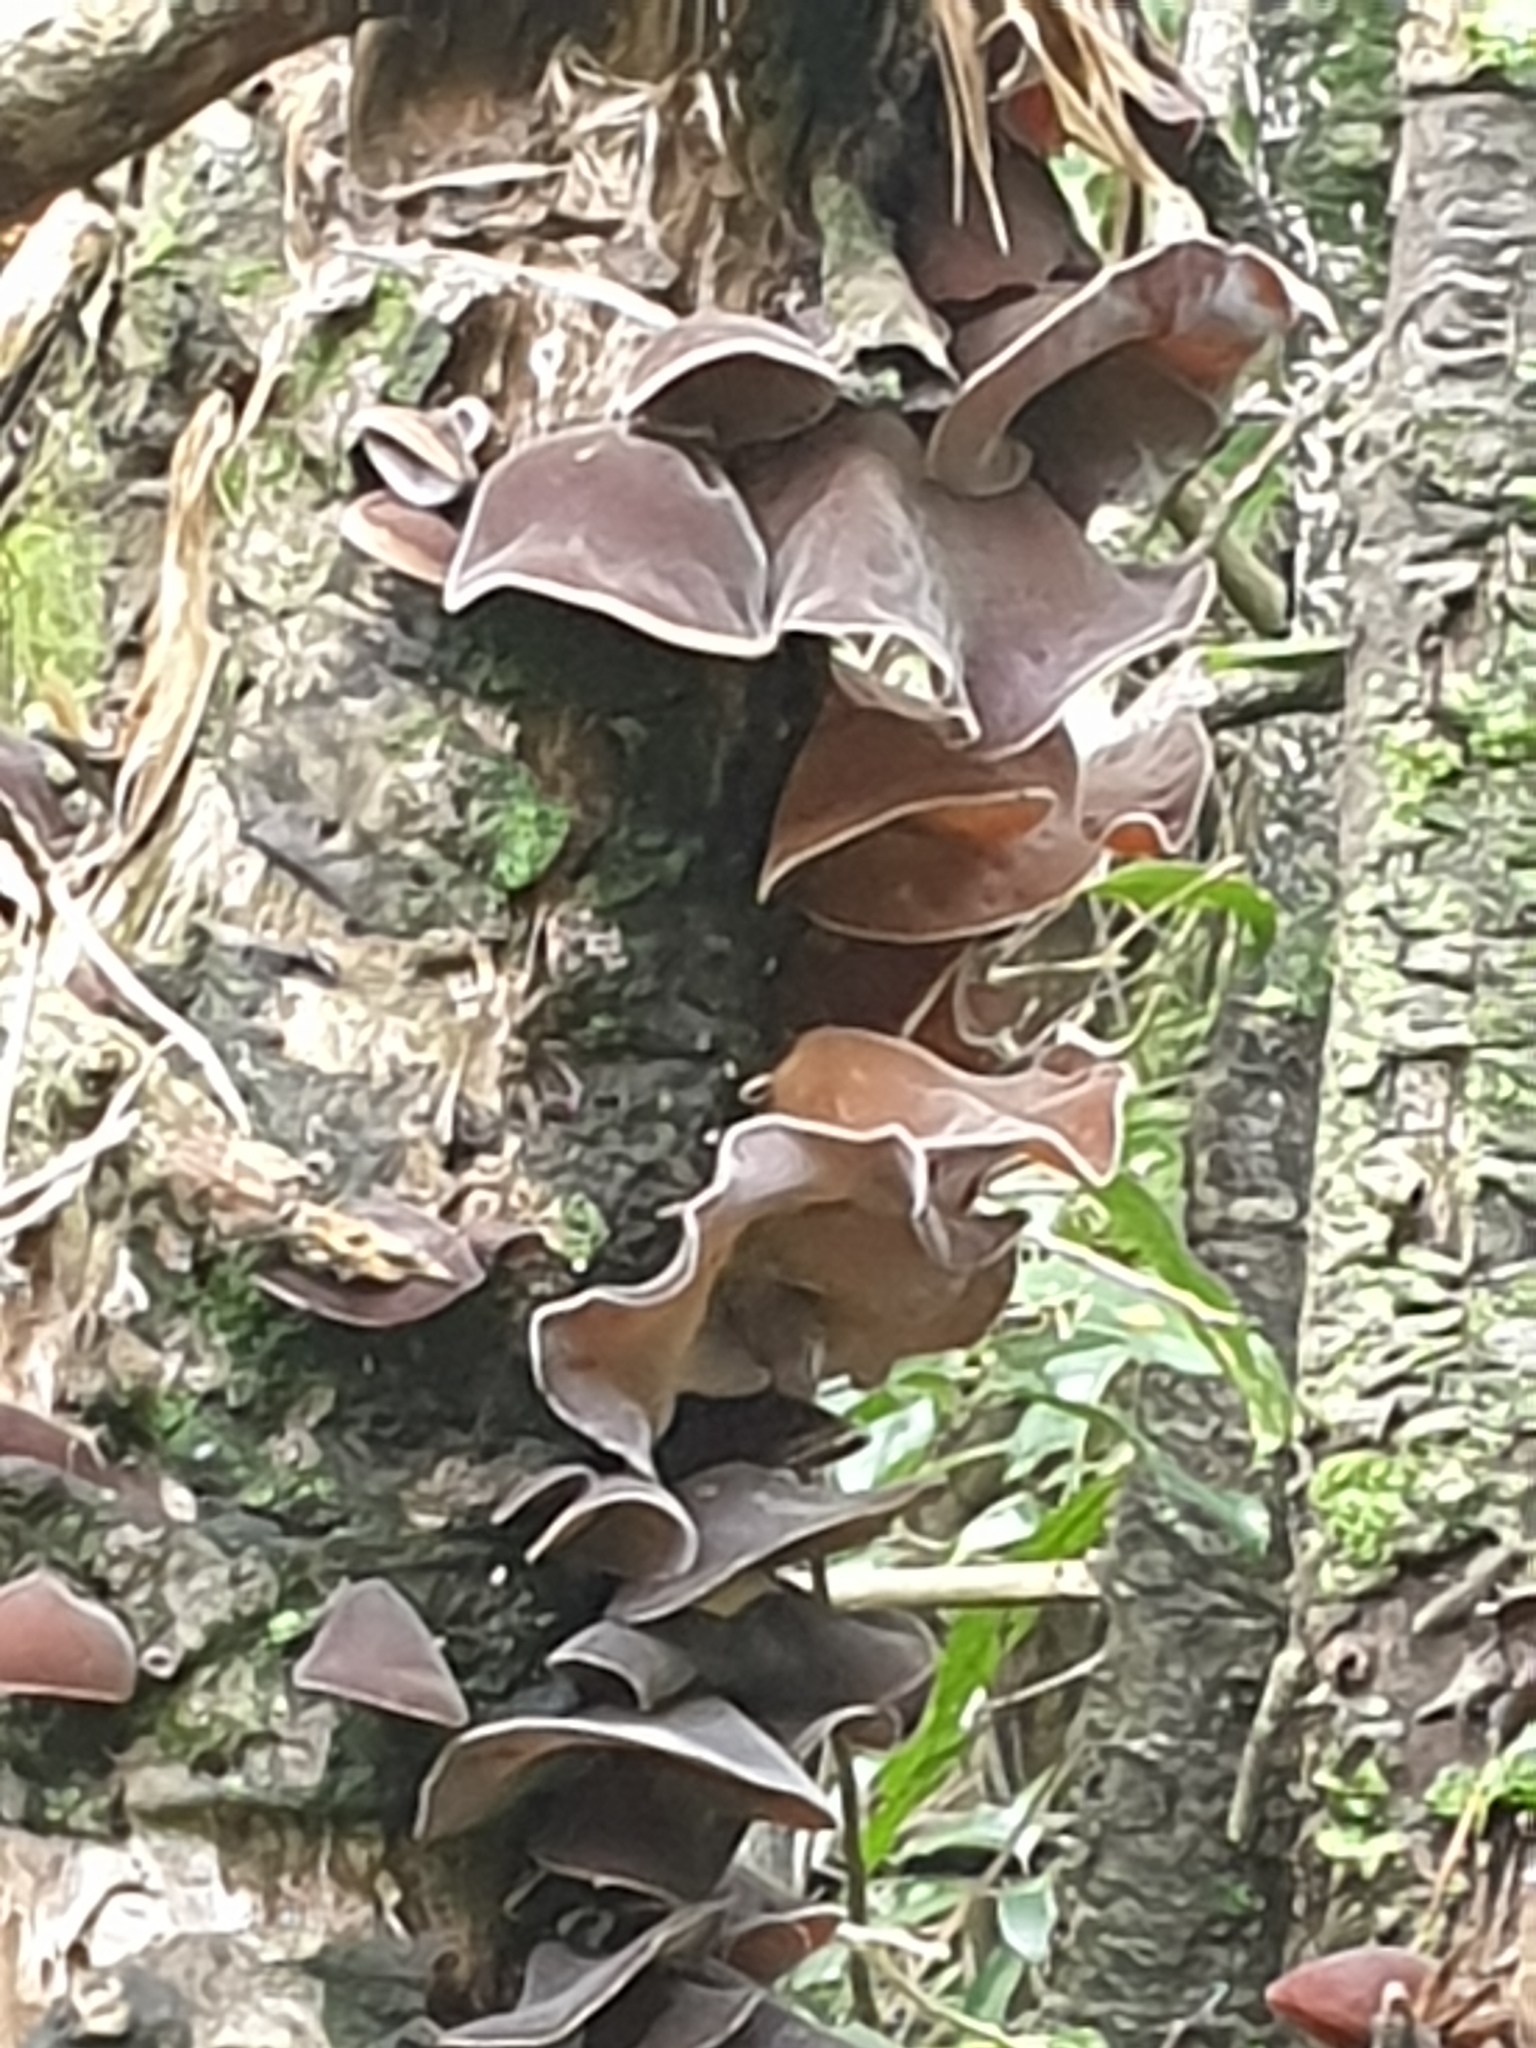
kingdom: Fungi
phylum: Basidiomycota
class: Agaricomycetes
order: Auriculariales
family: Auriculariaceae
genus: Auricularia
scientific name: Auricularia cornea
